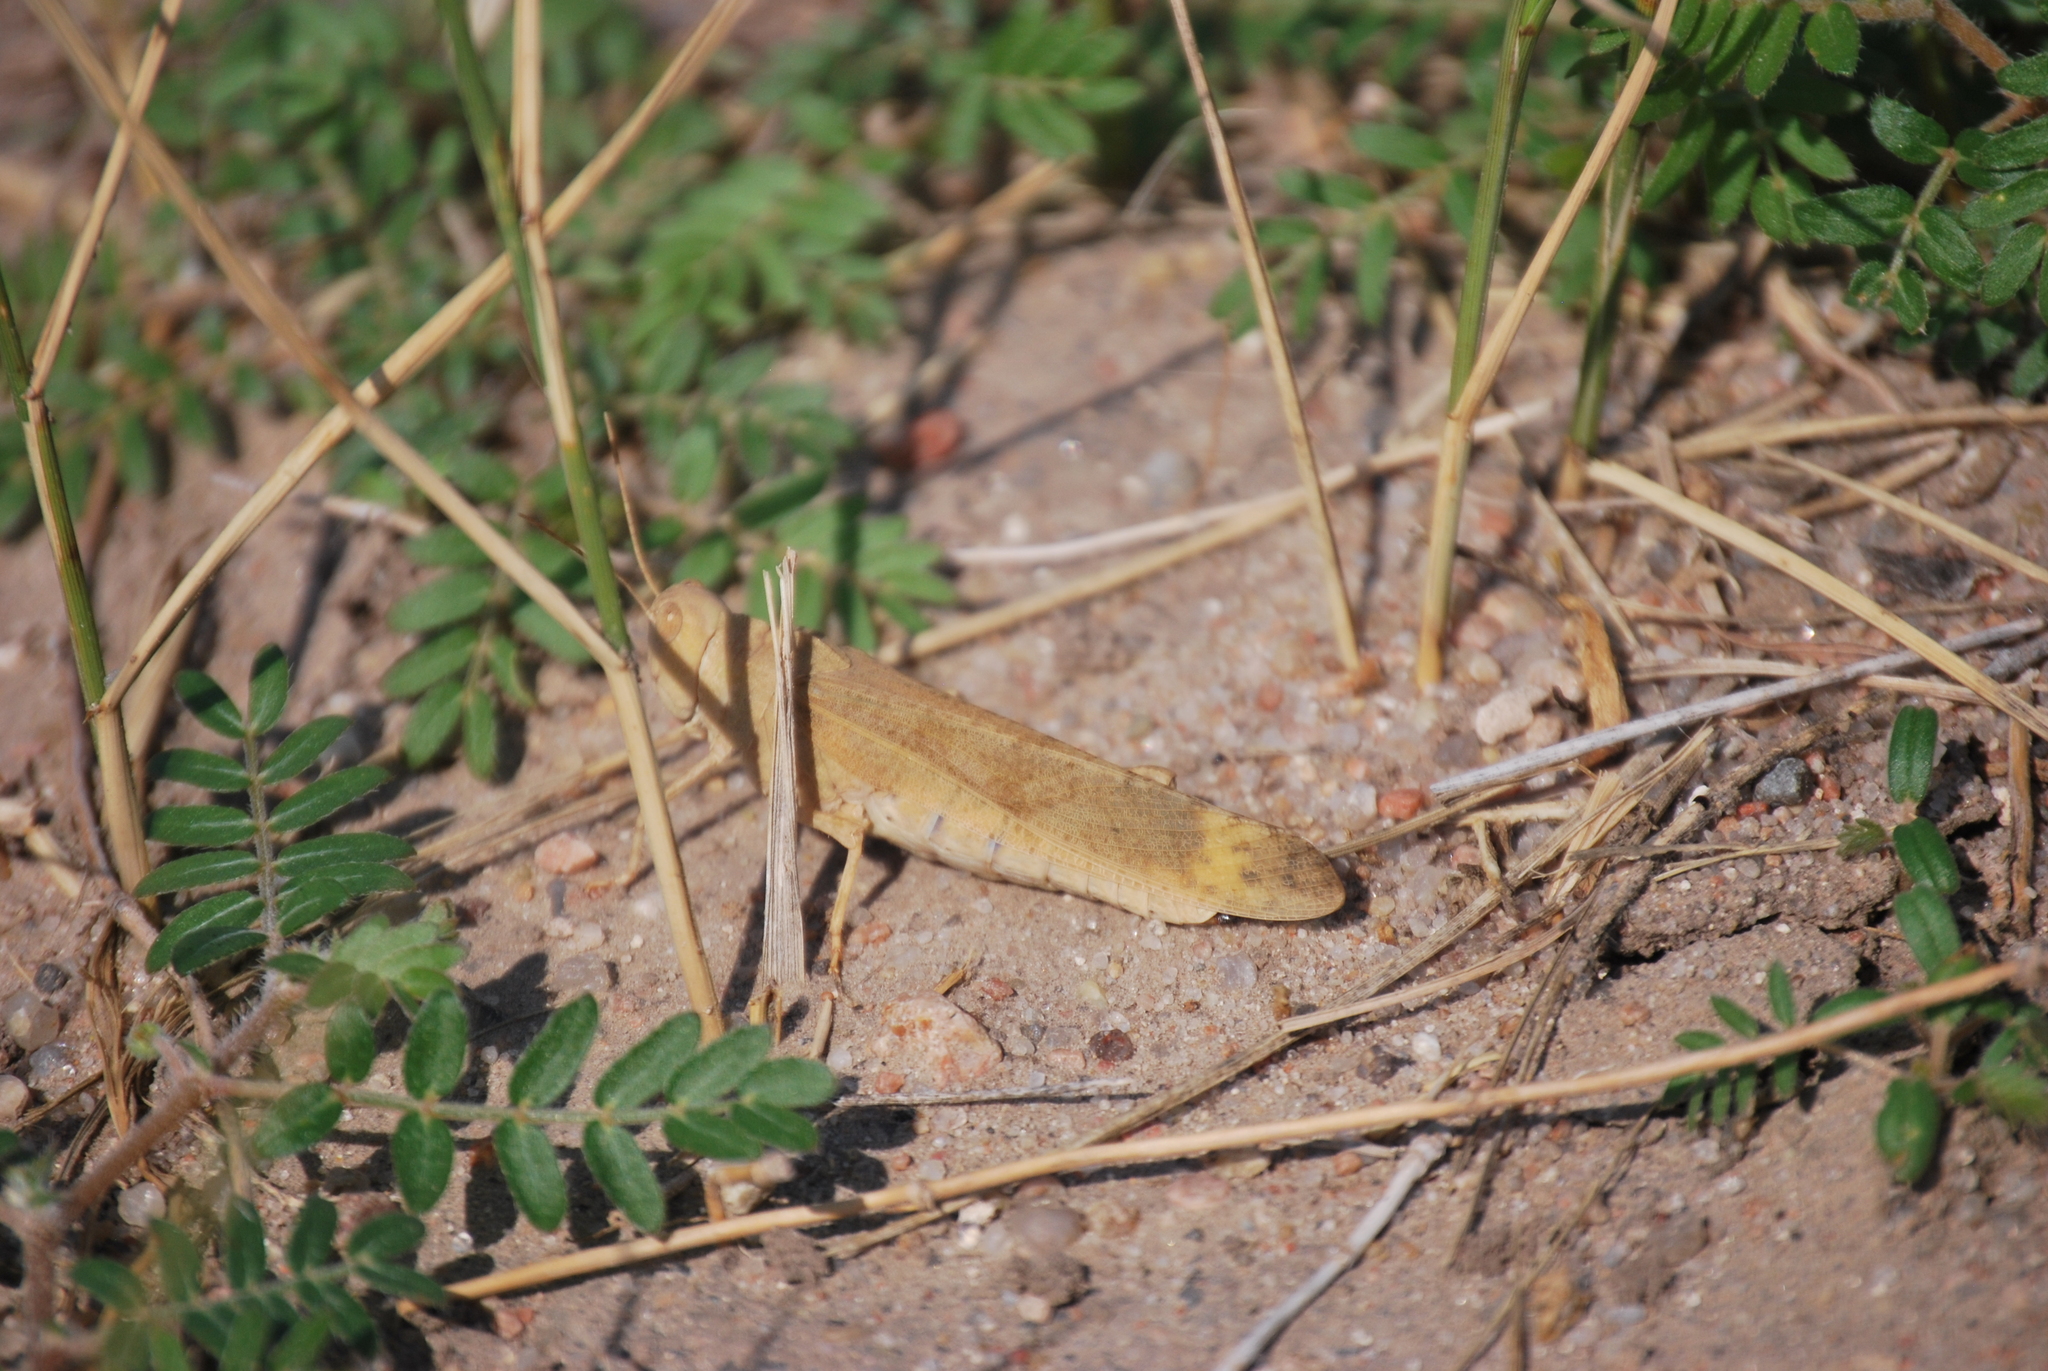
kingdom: Animalia
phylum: Arthropoda
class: Insecta
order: Orthoptera
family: Acrididae
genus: Dissosteira
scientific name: Dissosteira carolina
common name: Carolina grasshopper
